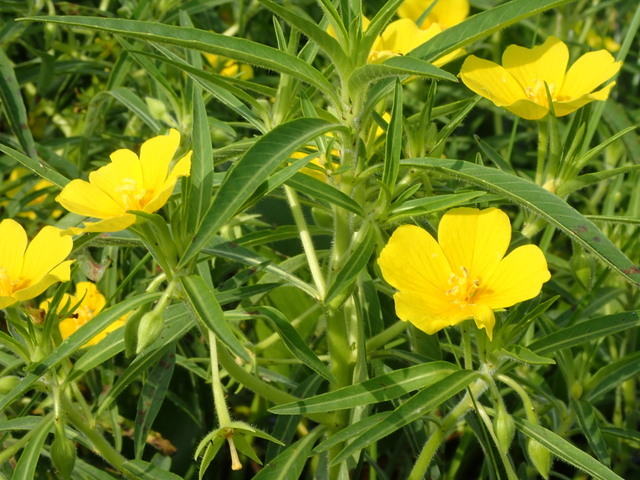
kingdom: Plantae
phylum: Tracheophyta
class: Magnoliopsida
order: Myrtales
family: Onagraceae
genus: Ludwigia
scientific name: Ludwigia hexapetala
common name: Water-primrose
